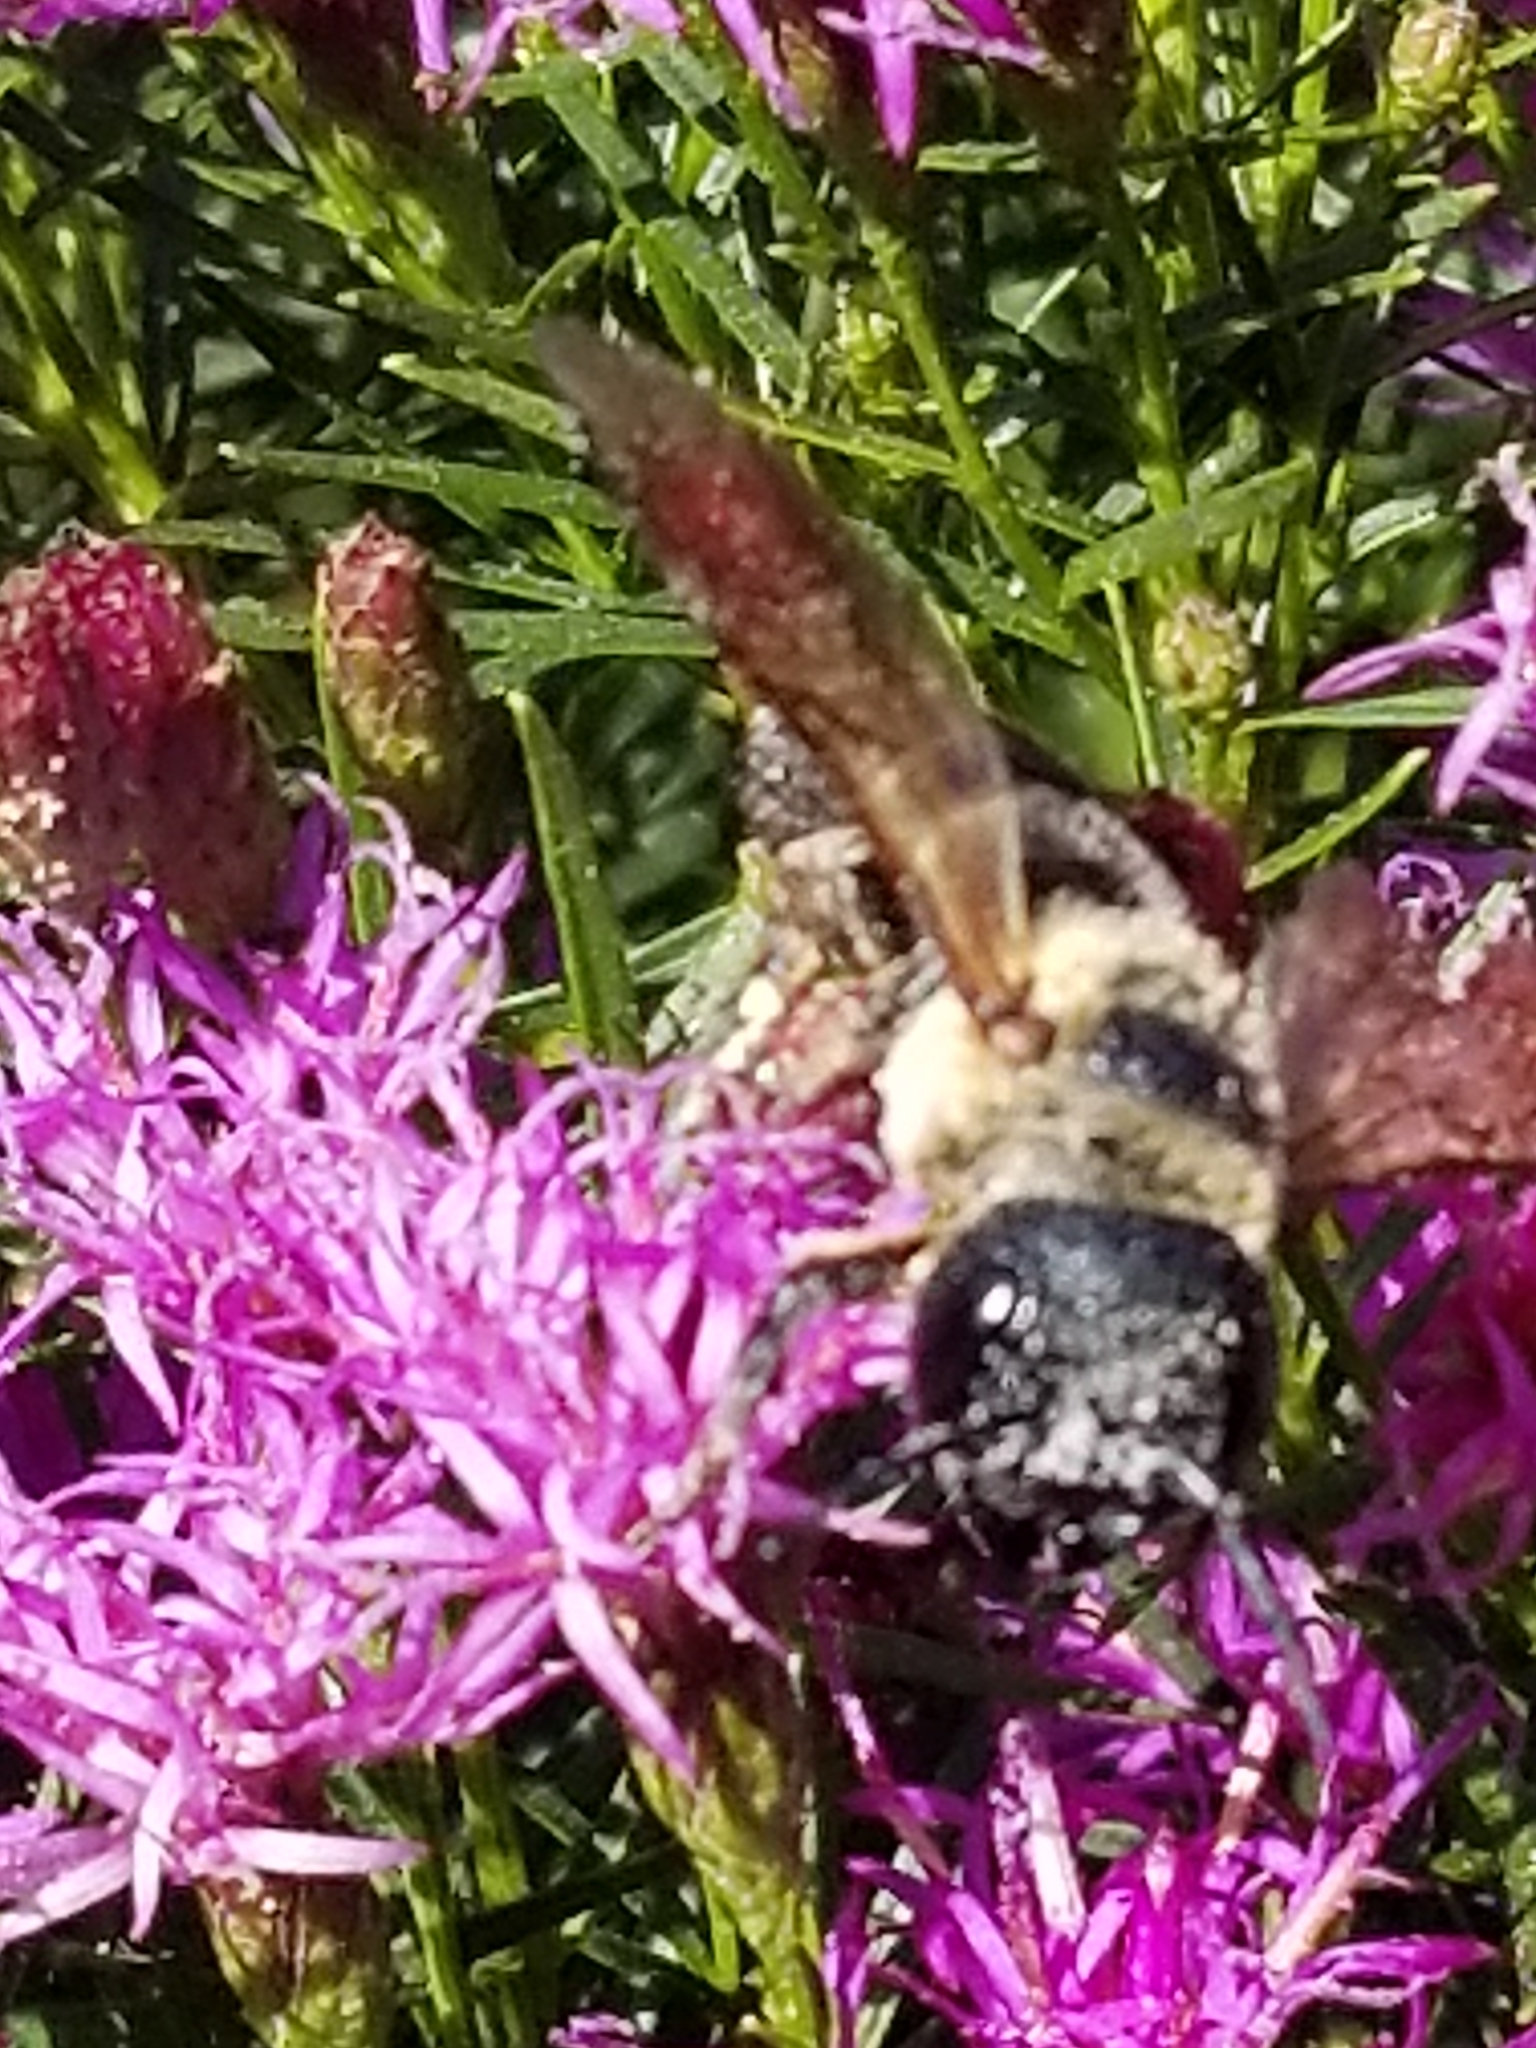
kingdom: Animalia
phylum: Arthropoda
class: Insecta
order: Hymenoptera
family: Megachilidae
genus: Megachile
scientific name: Megachile sculpturalis
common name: Sculptured resin bee
